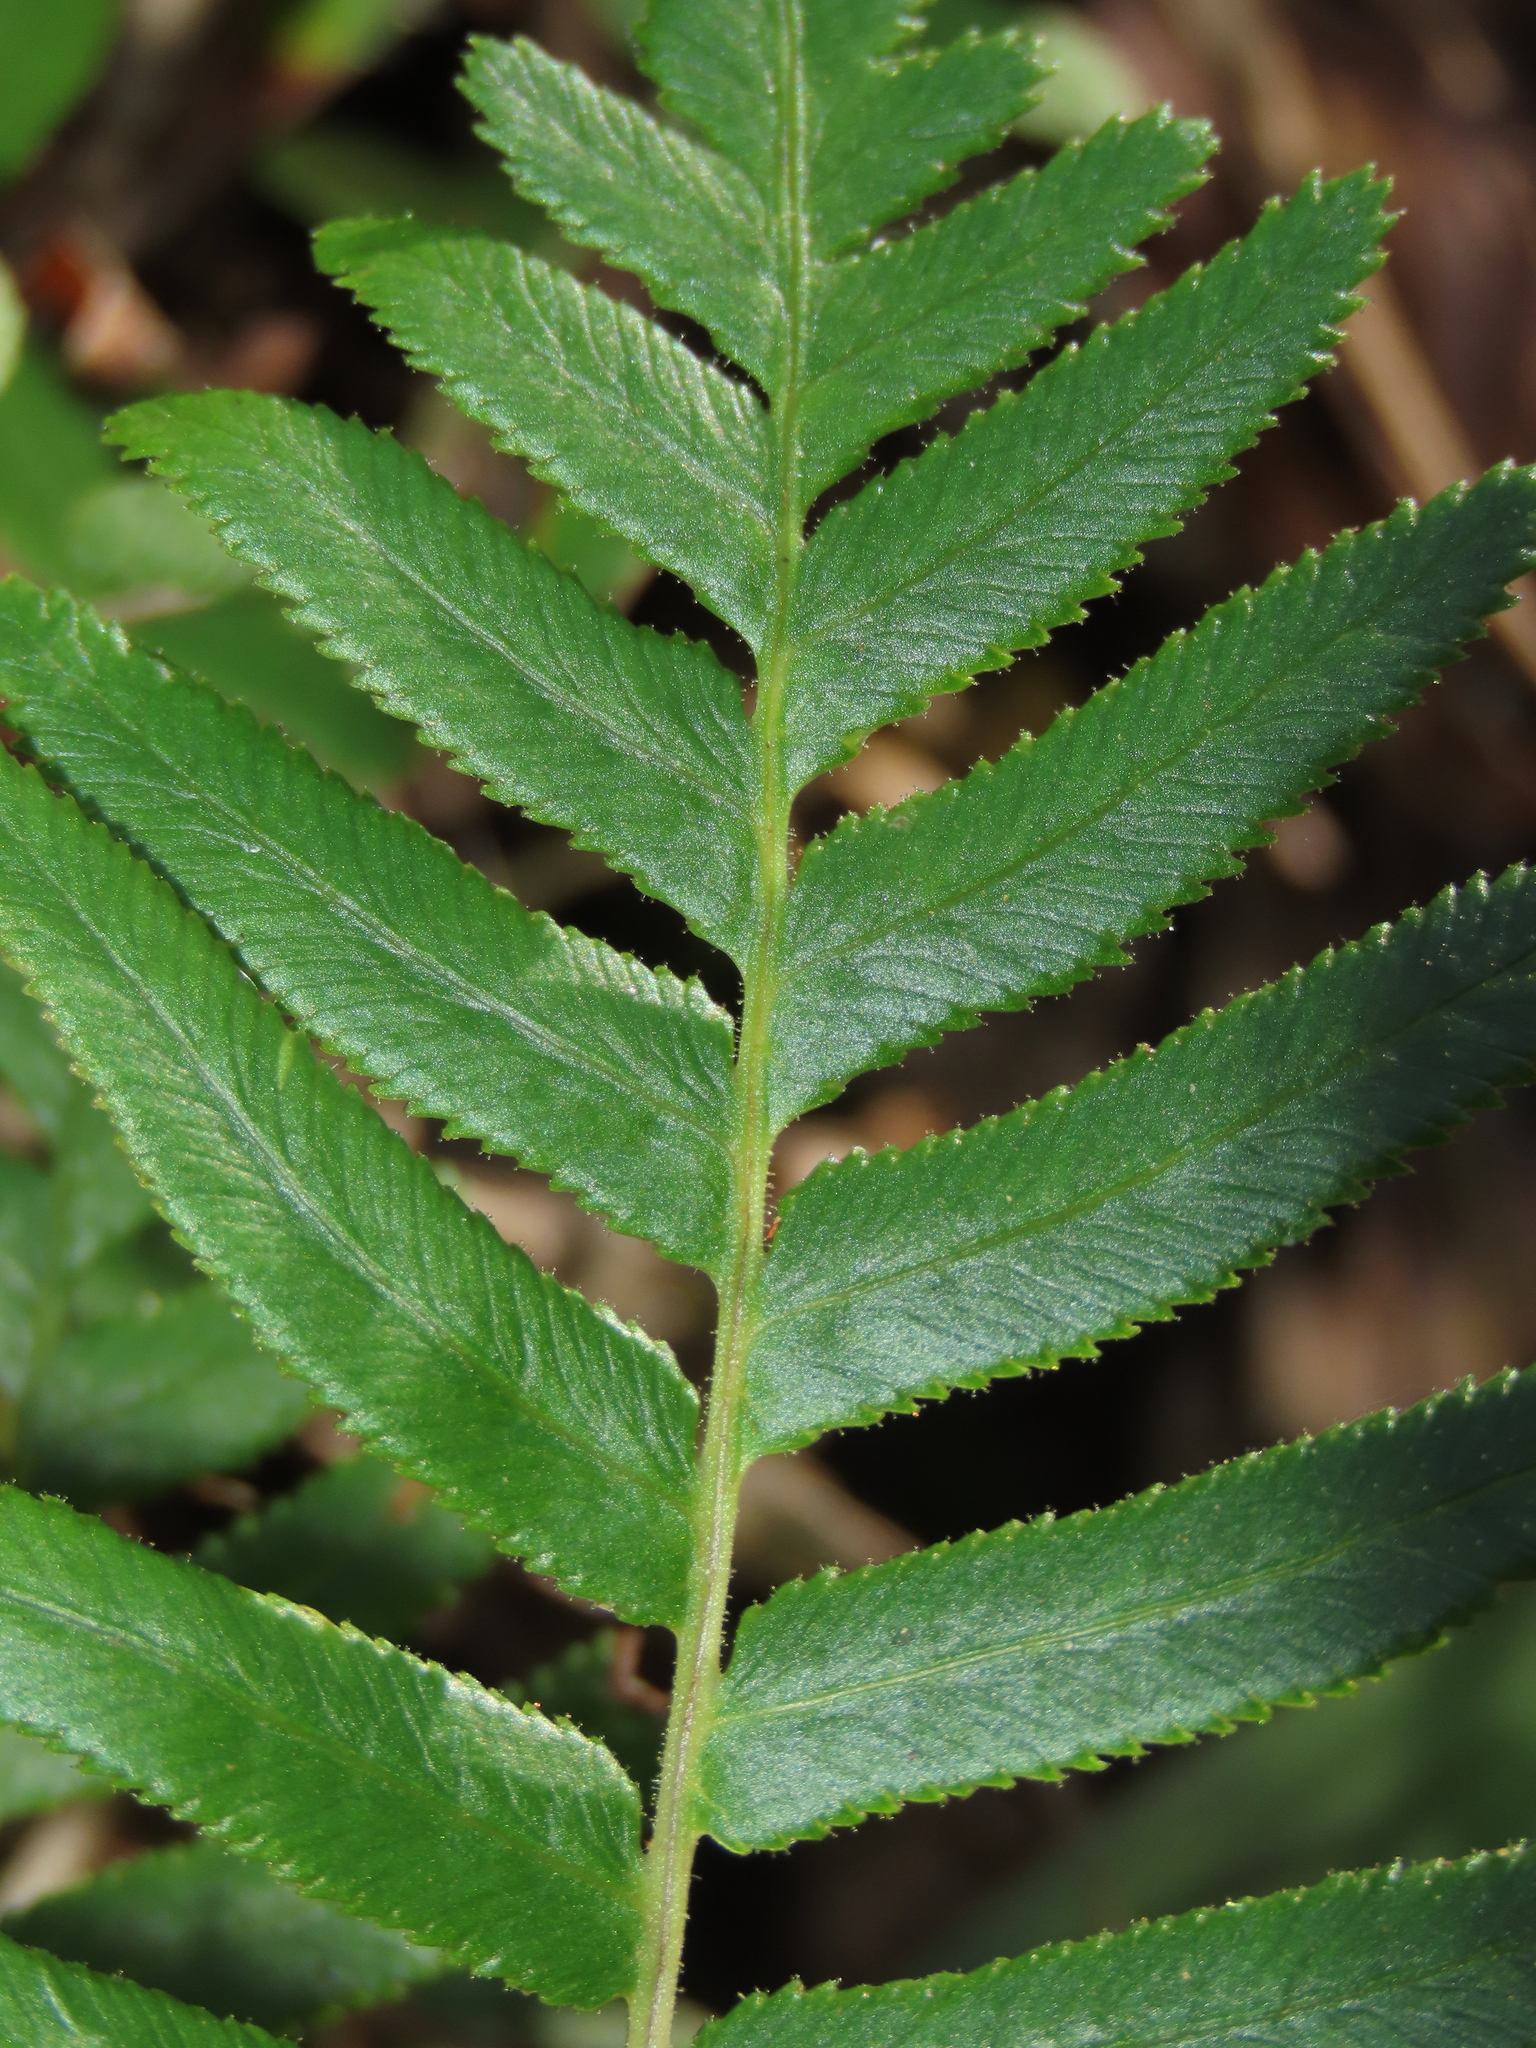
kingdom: Plantae
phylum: Tracheophyta
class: Polypodiopsida
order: Polypodiales
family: Blechnaceae
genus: Brainea
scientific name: Brainea insignis
